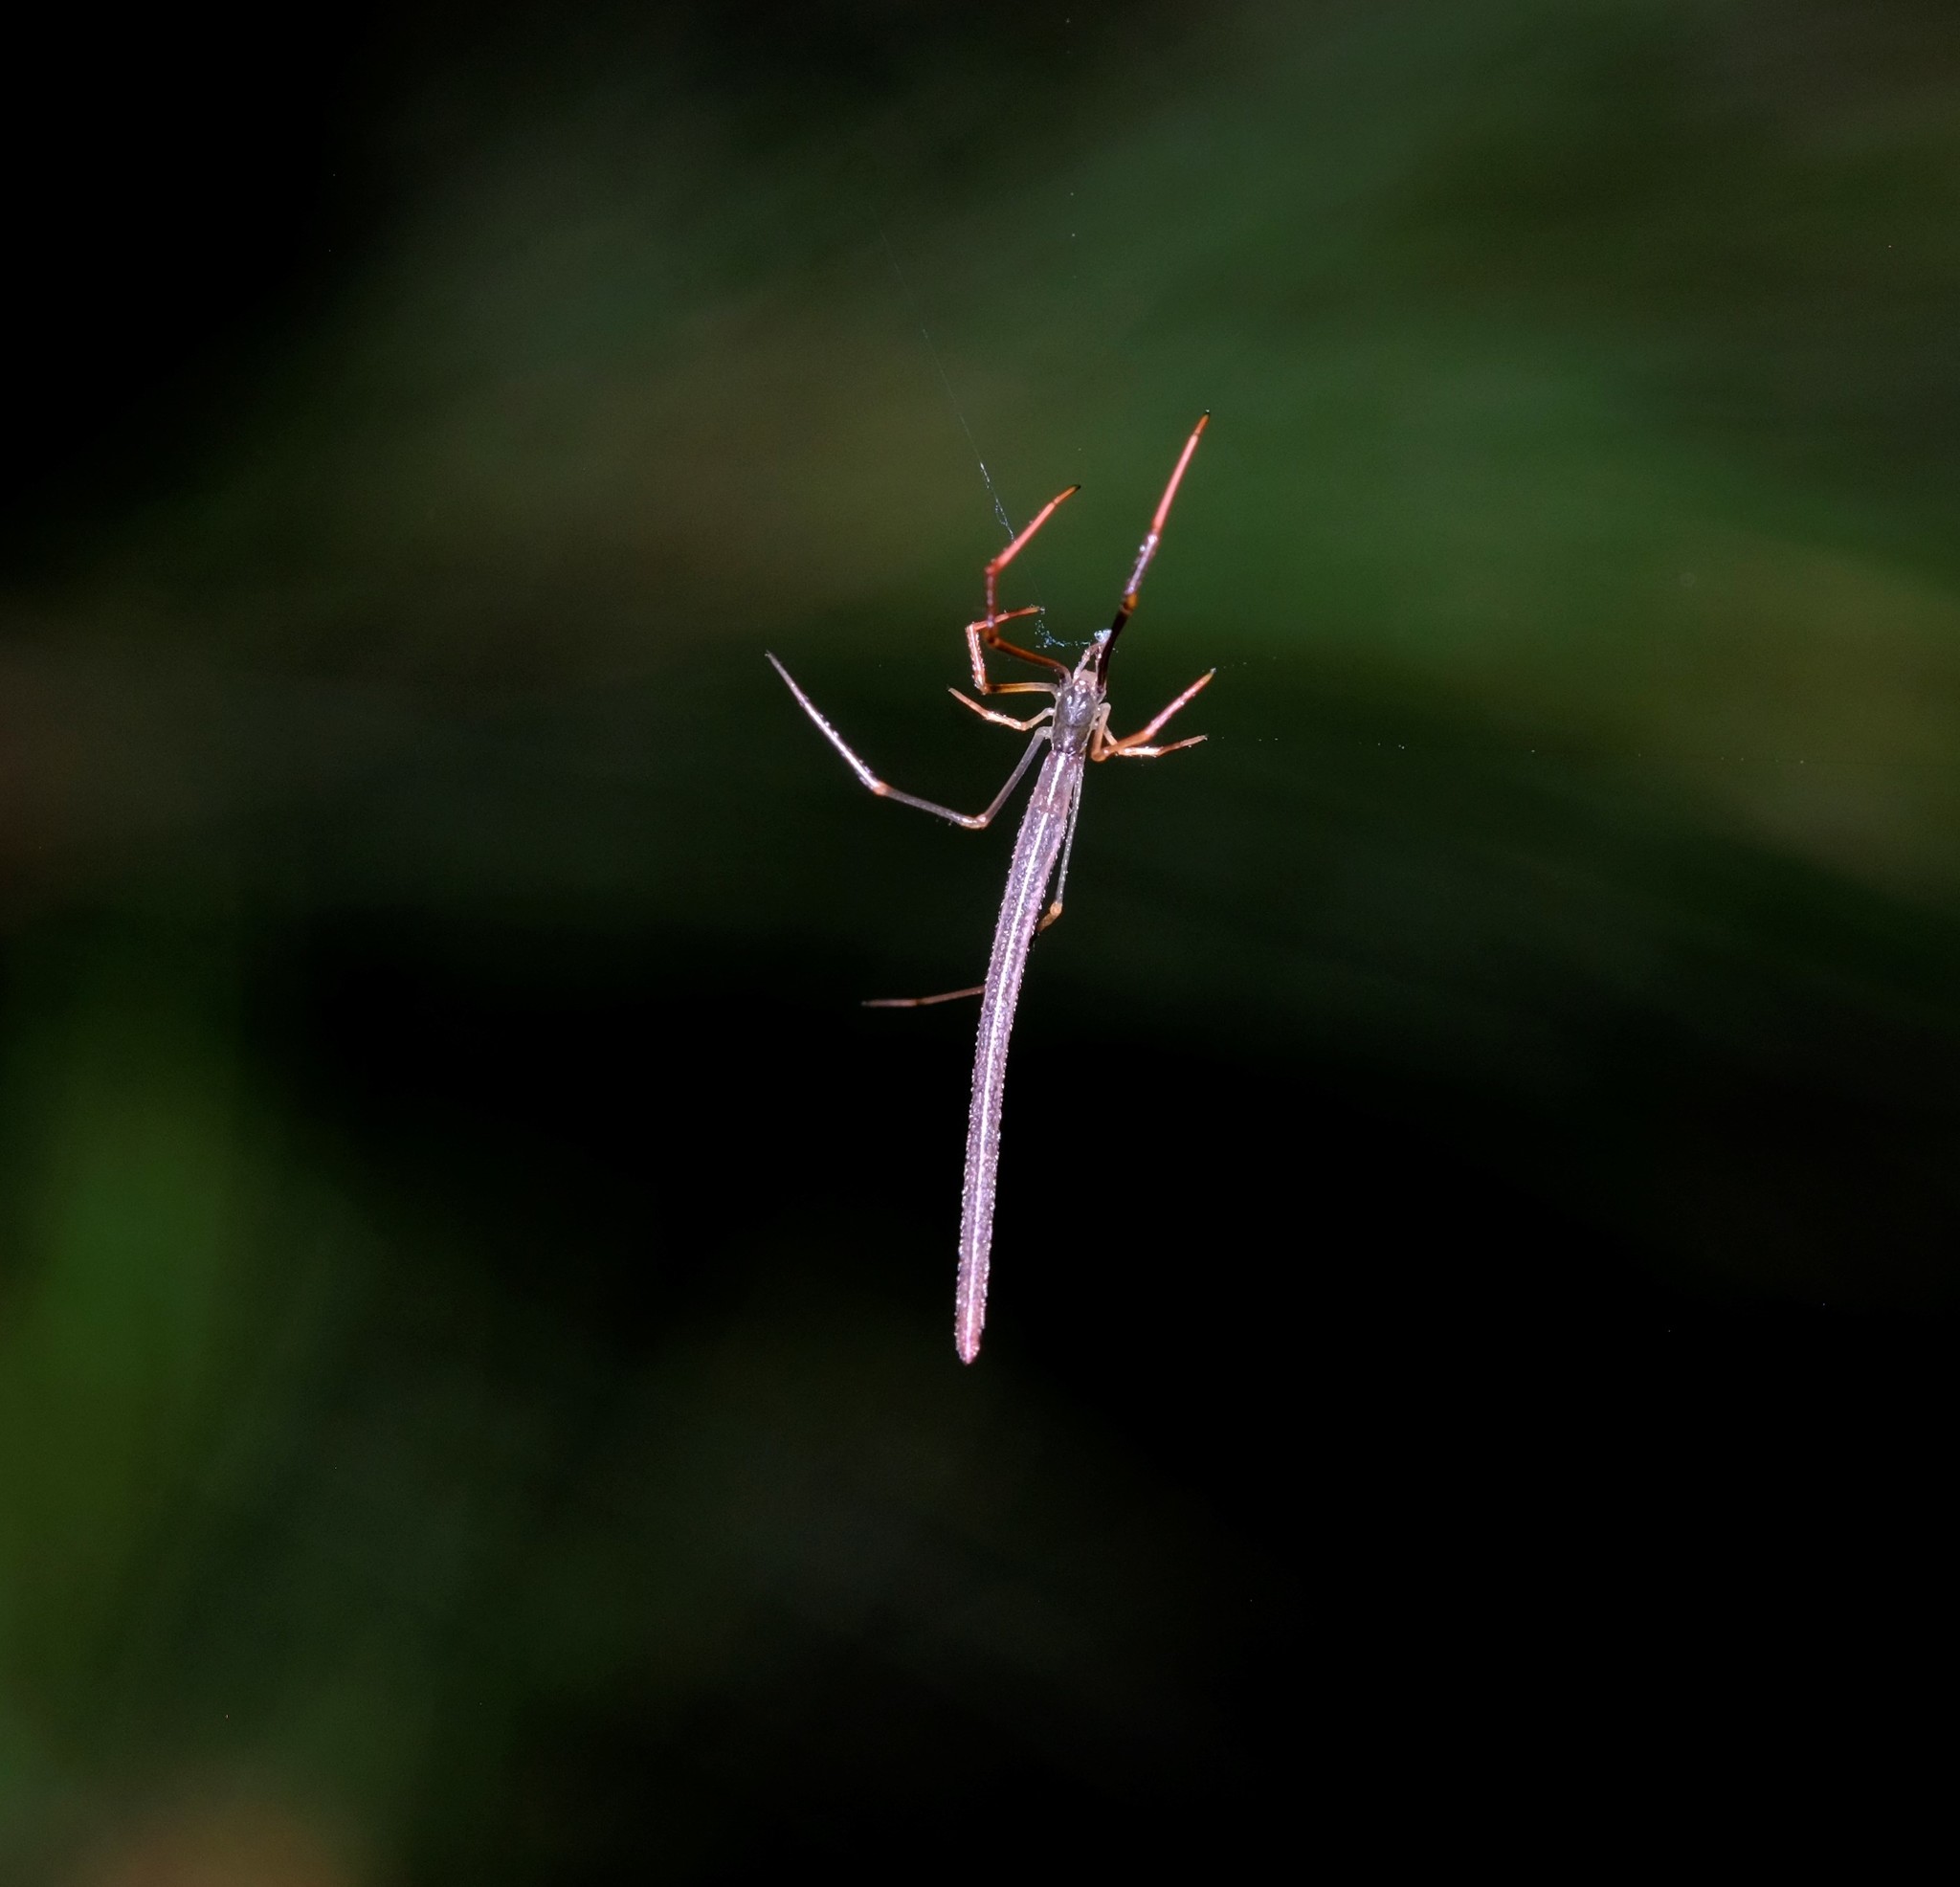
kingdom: Animalia
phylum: Arthropoda
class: Arachnida
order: Araneae
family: Theridiidae
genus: Ariamnes
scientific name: Ariamnes colubrinus
